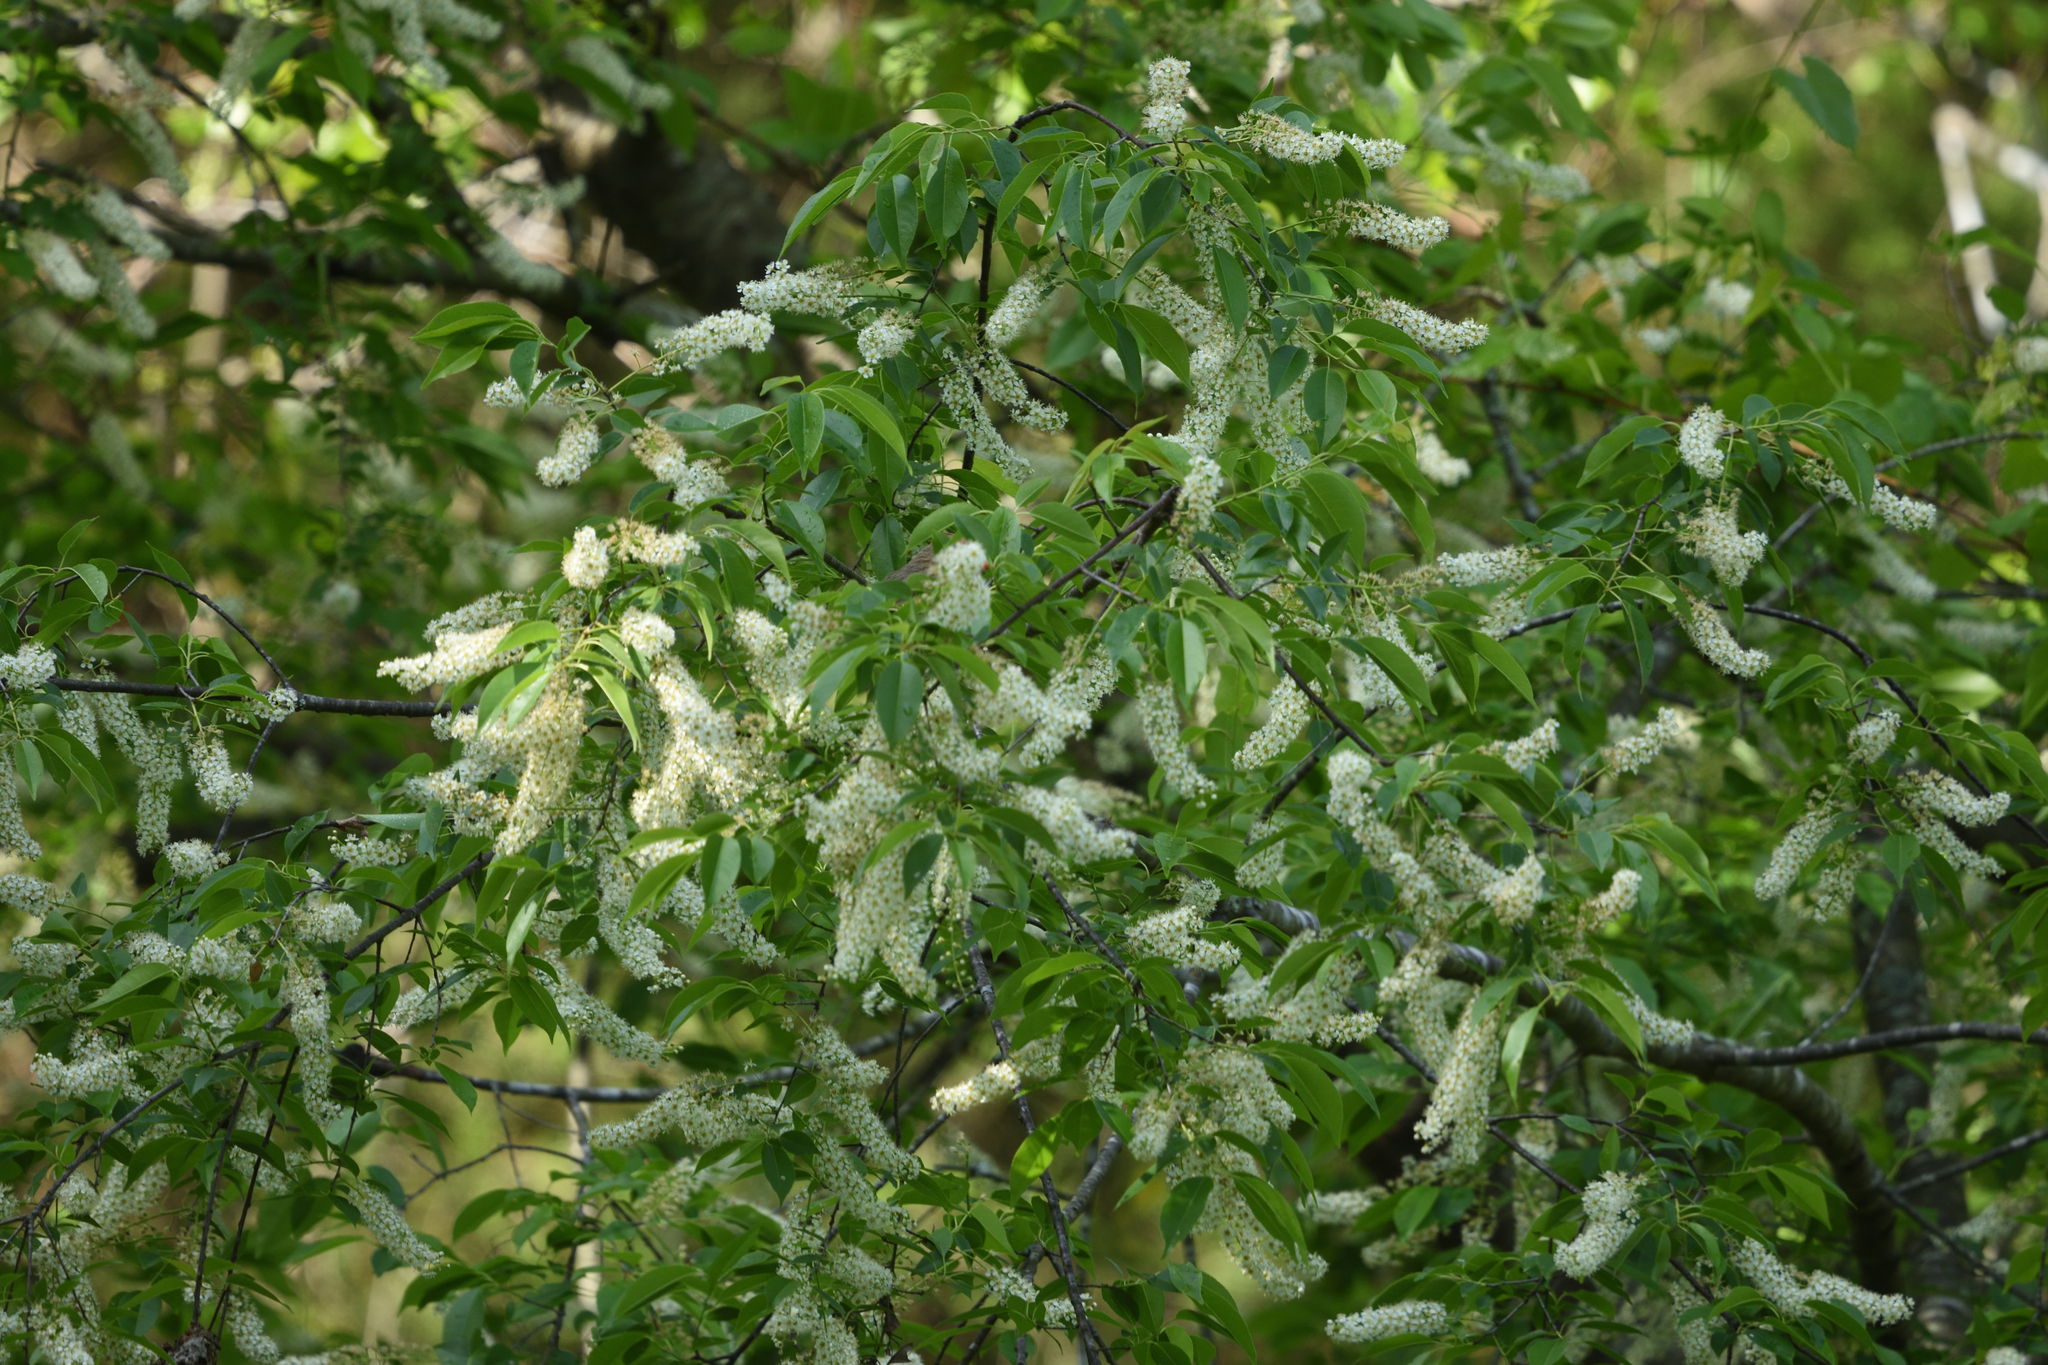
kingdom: Plantae
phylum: Tracheophyta
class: Magnoliopsida
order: Rosales
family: Rosaceae
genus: Prunus
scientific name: Prunus serotina
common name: Black cherry
